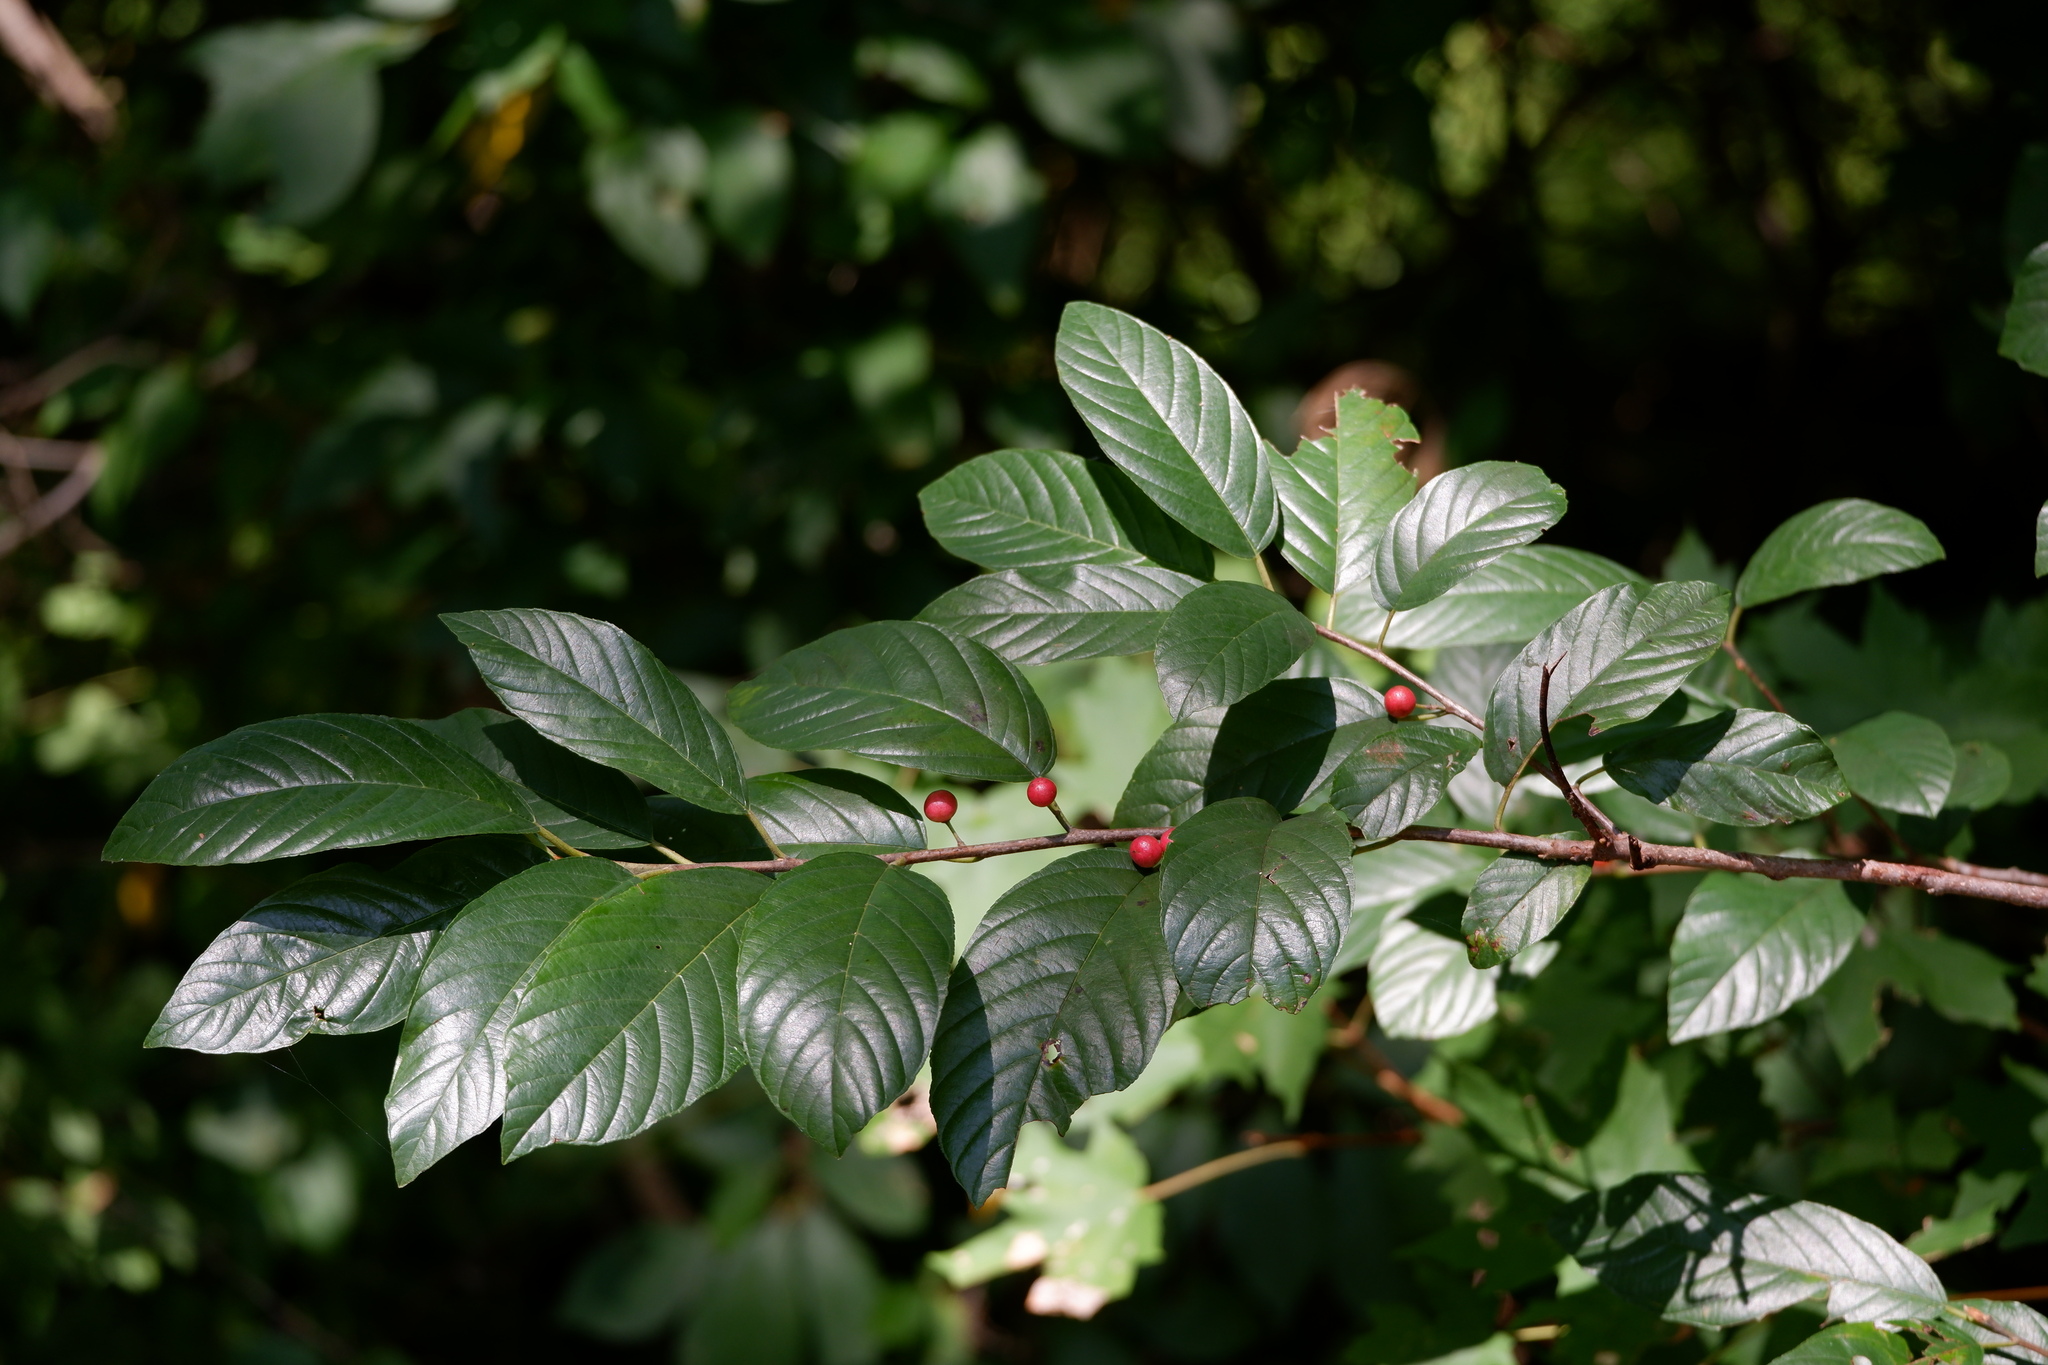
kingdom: Plantae
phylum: Tracheophyta
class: Magnoliopsida
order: Rosales
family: Rhamnaceae
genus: Frangula
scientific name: Frangula caroliniana
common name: Carolina buckthorn
